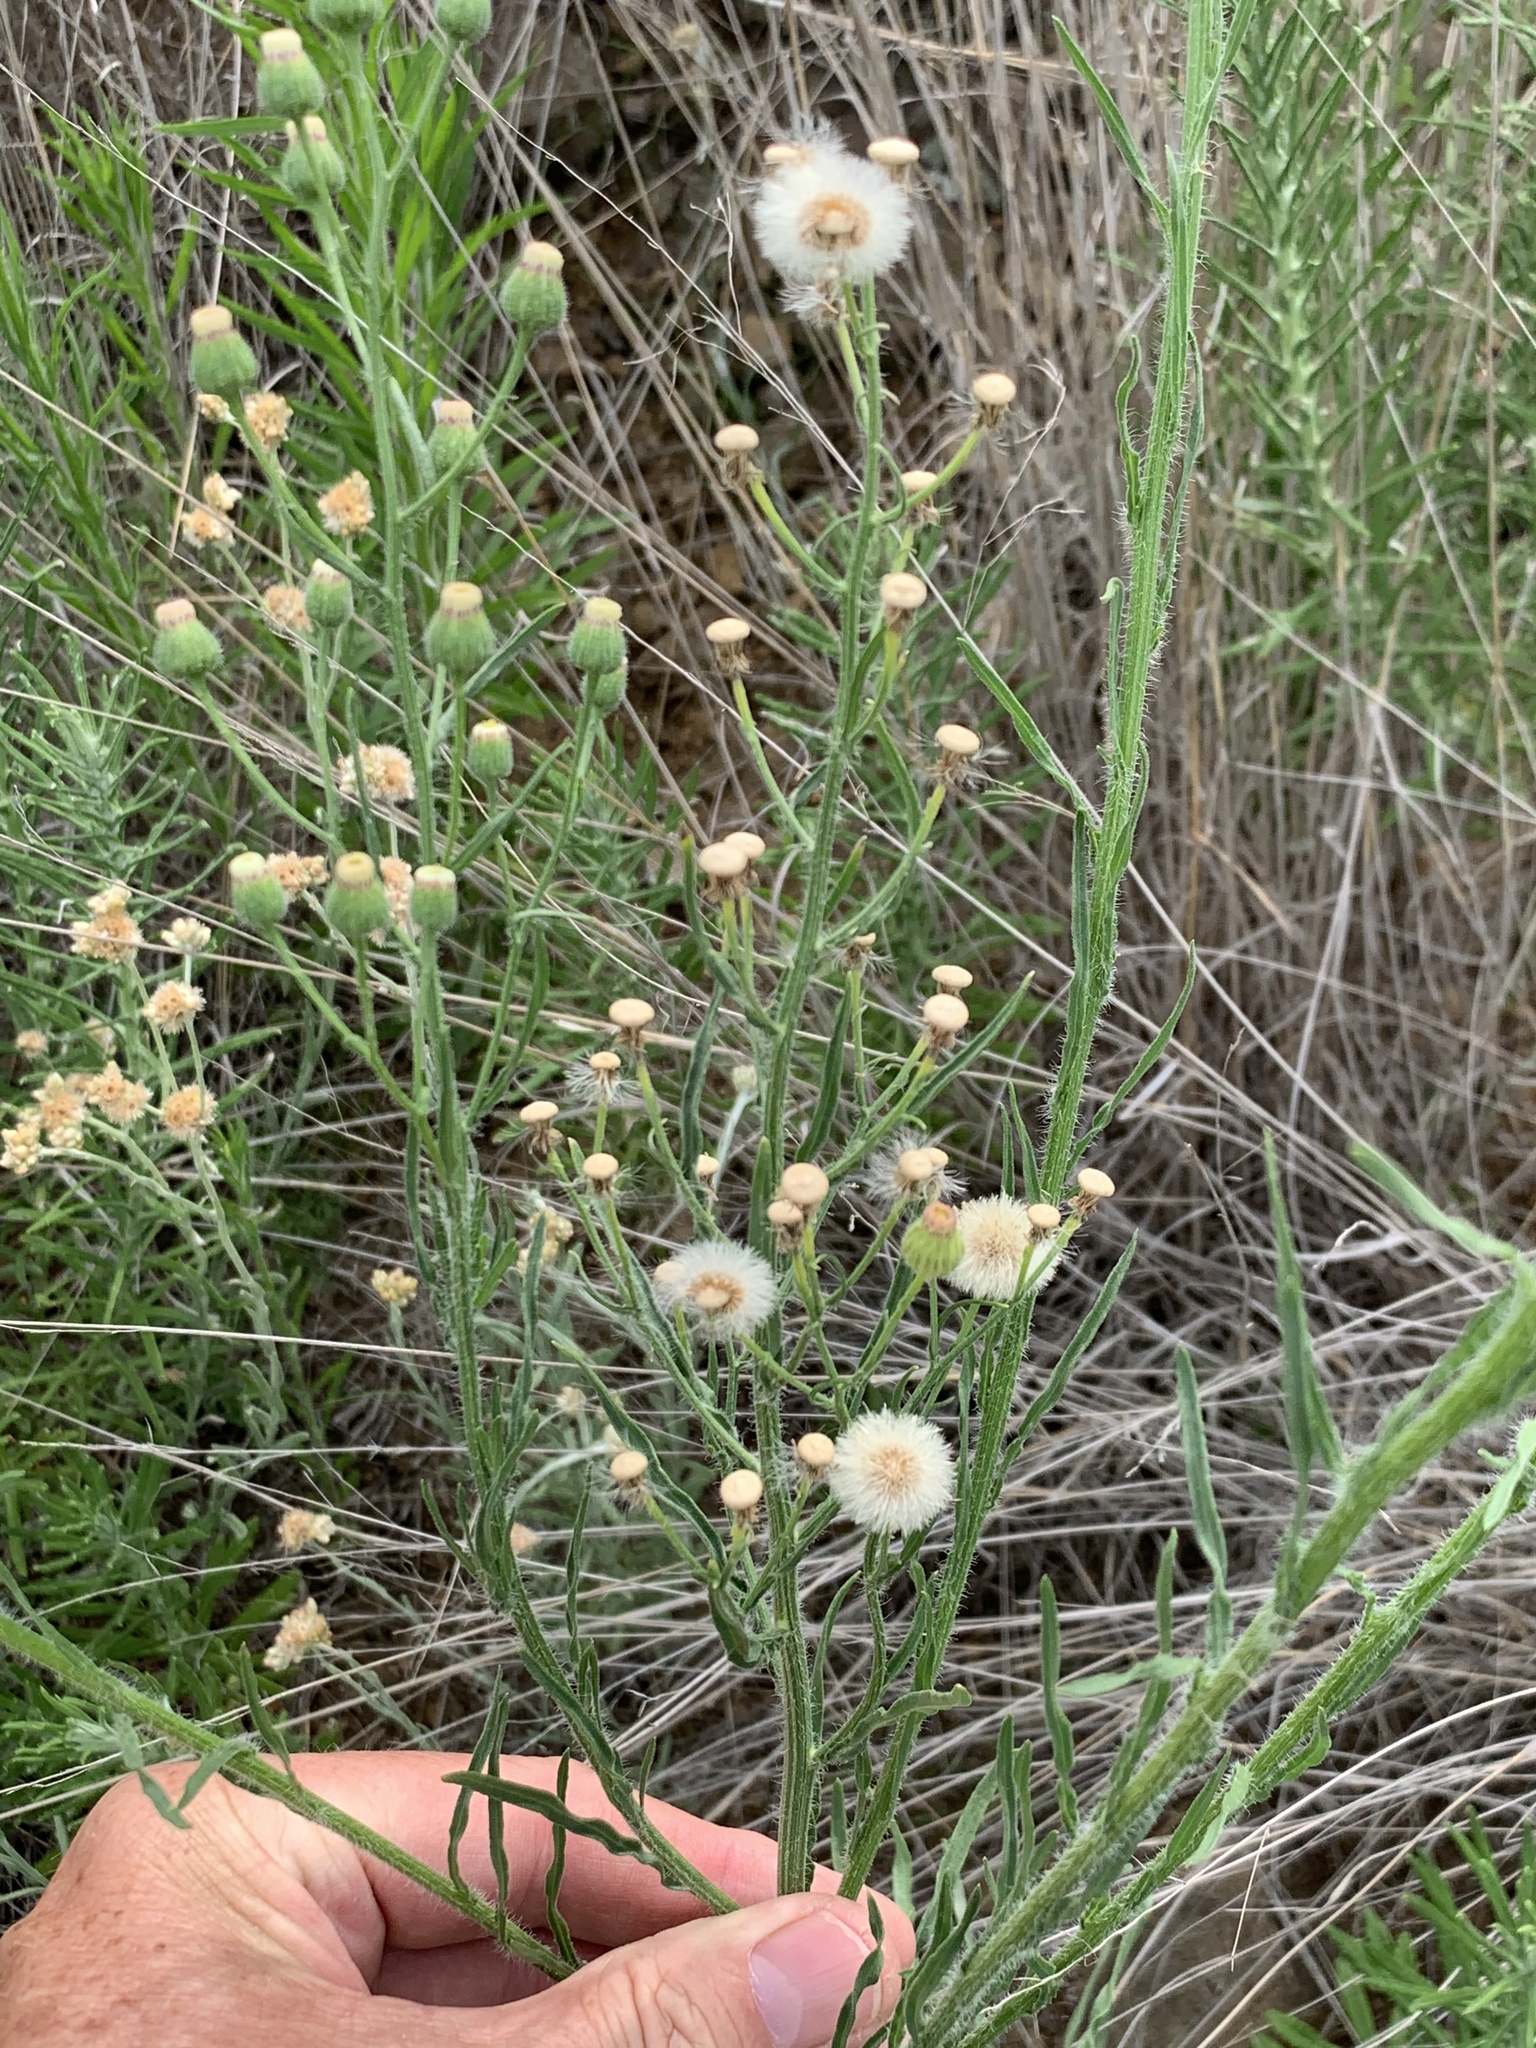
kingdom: Plantae
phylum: Tracheophyta
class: Magnoliopsida
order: Asterales
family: Asteraceae
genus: Erigeron
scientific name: Erigeron bonariensis
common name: Argentine fleabane
